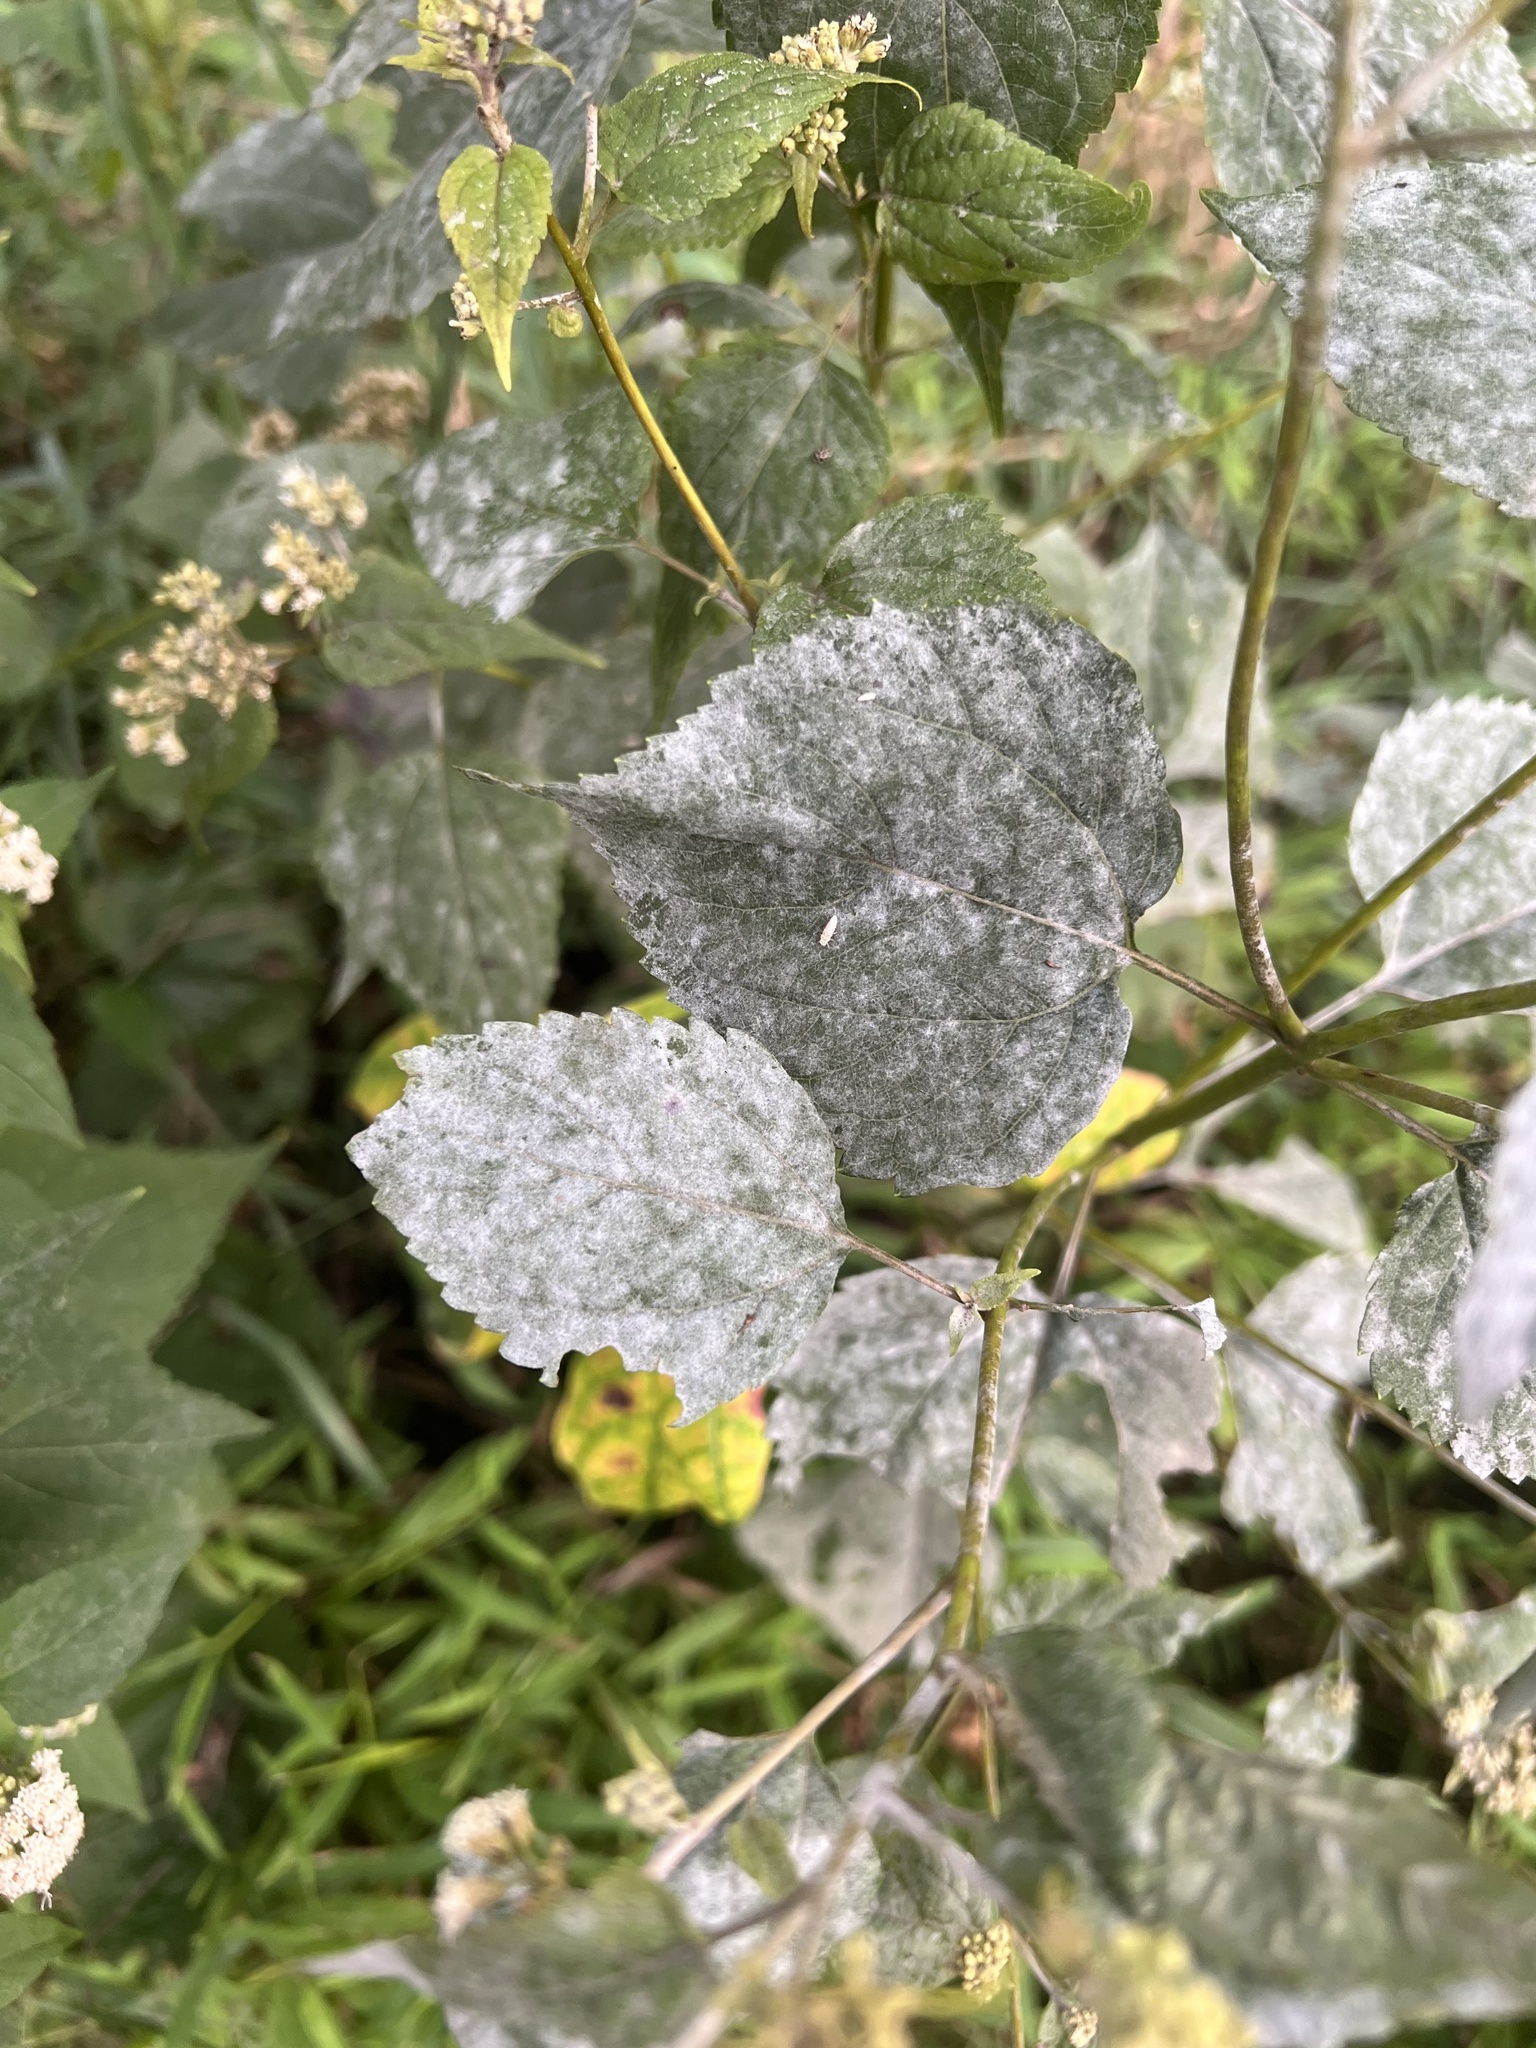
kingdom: Fungi
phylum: Ascomycota
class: Leotiomycetes
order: Helotiales
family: Erysiphaceae
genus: Neoerysiphe
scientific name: Neoerysiphe maquii
